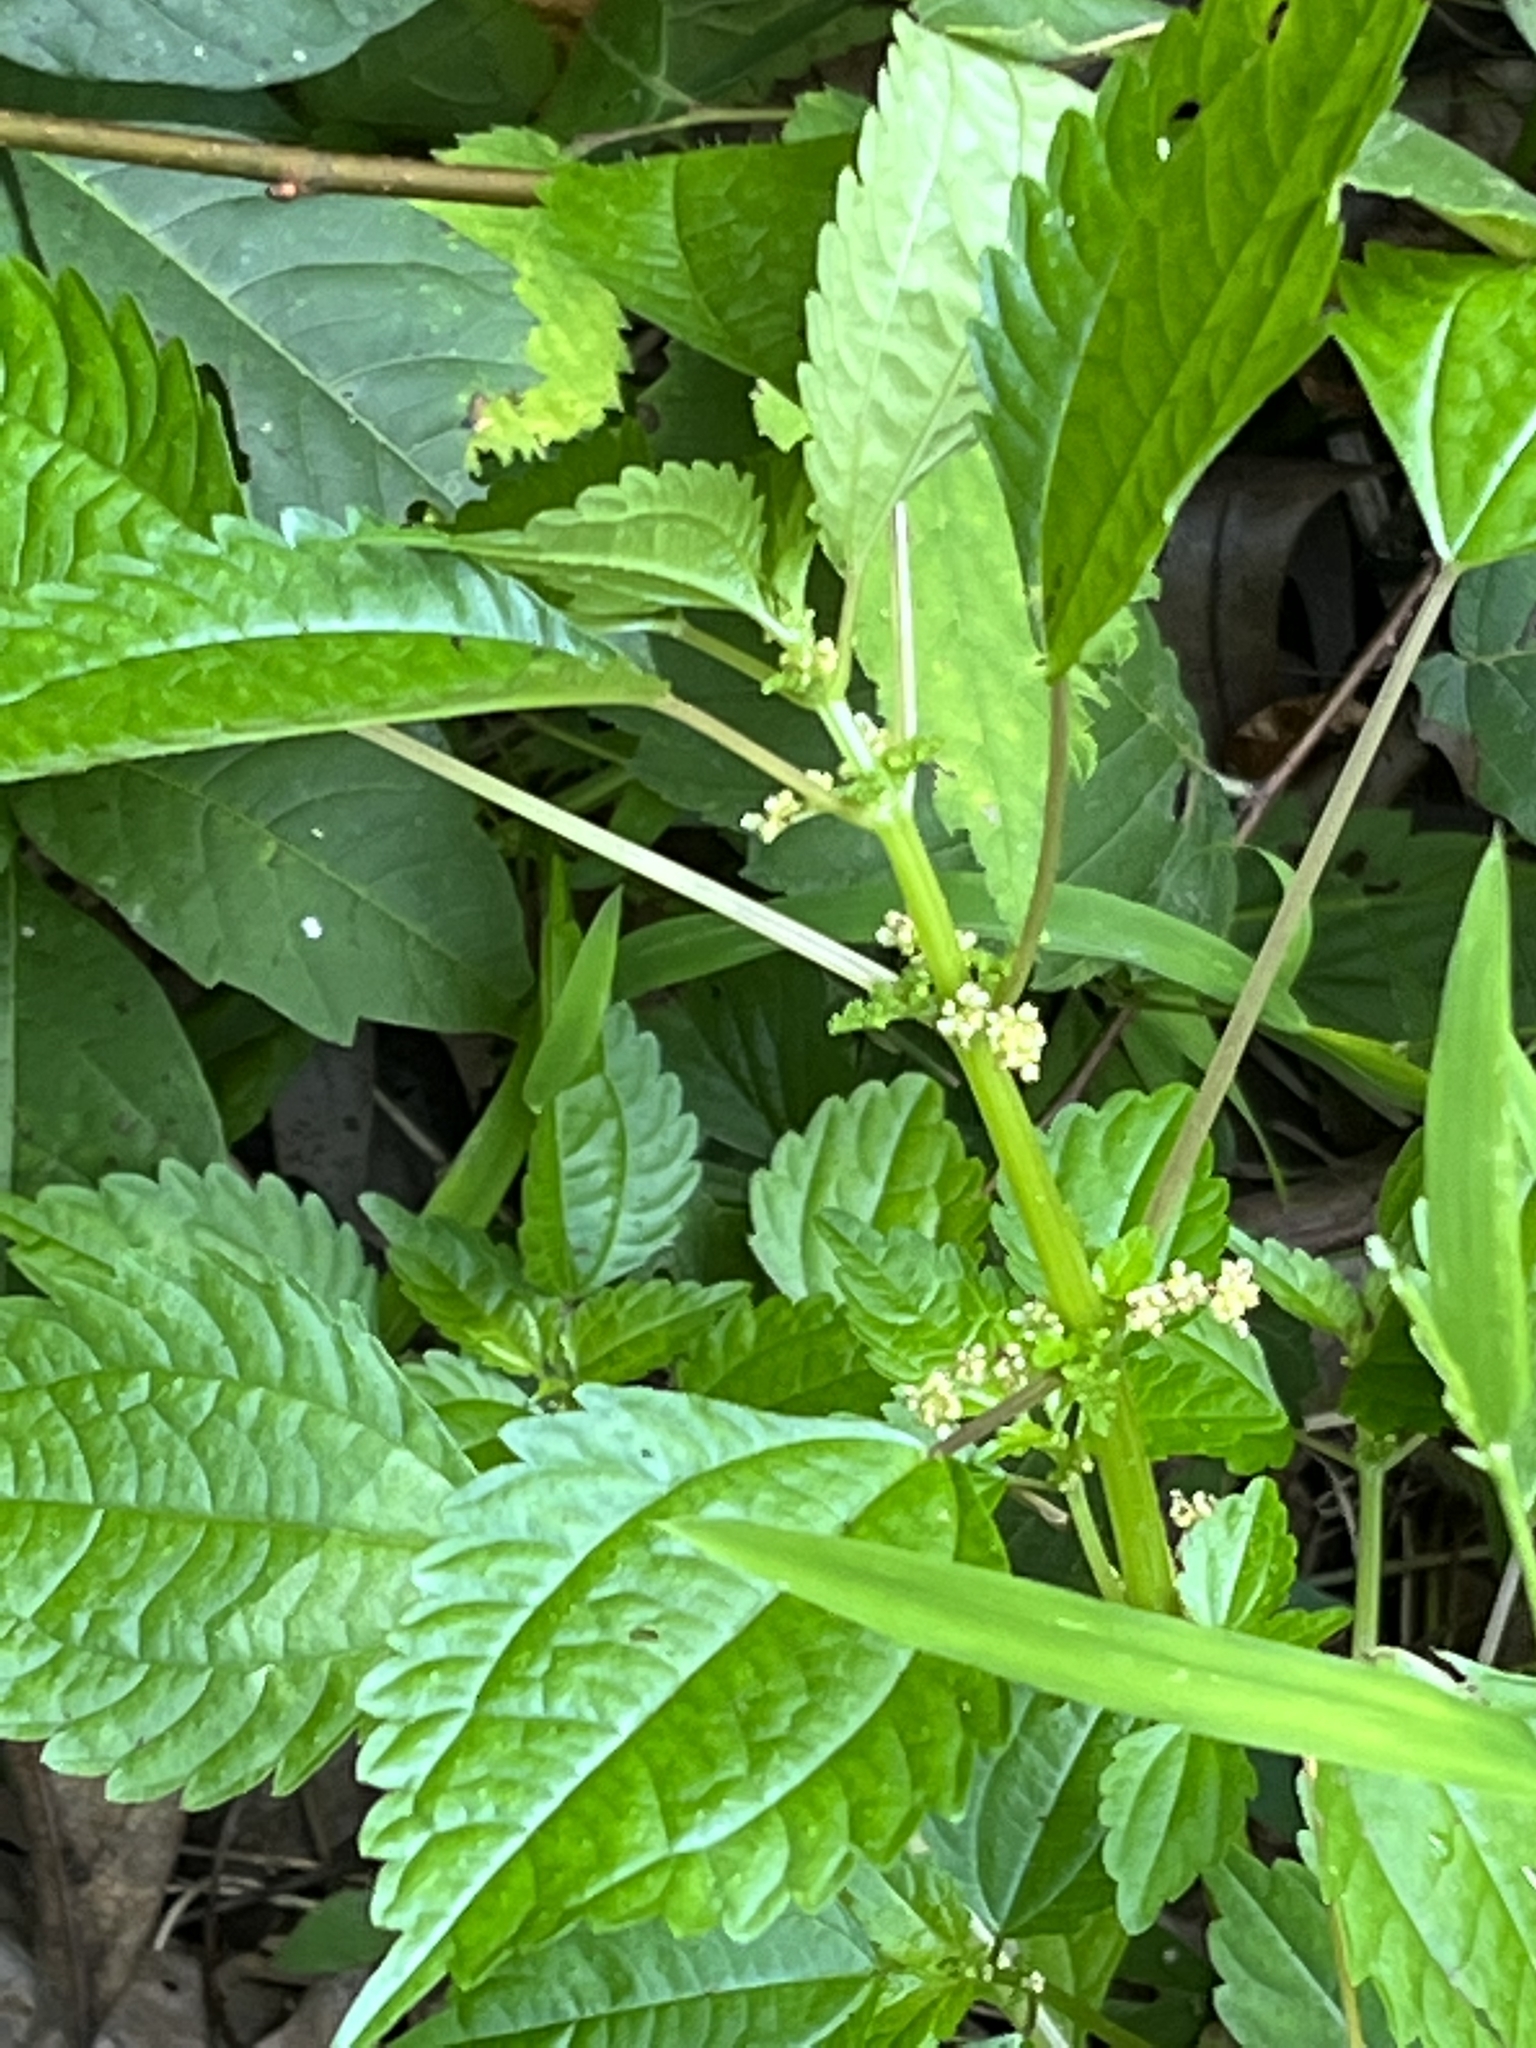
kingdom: Plantae
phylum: Tracheophyta
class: Magnoliopsida
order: Rosales
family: Urticaceae
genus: Pilea
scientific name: Pilea pumila
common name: Clearweed
